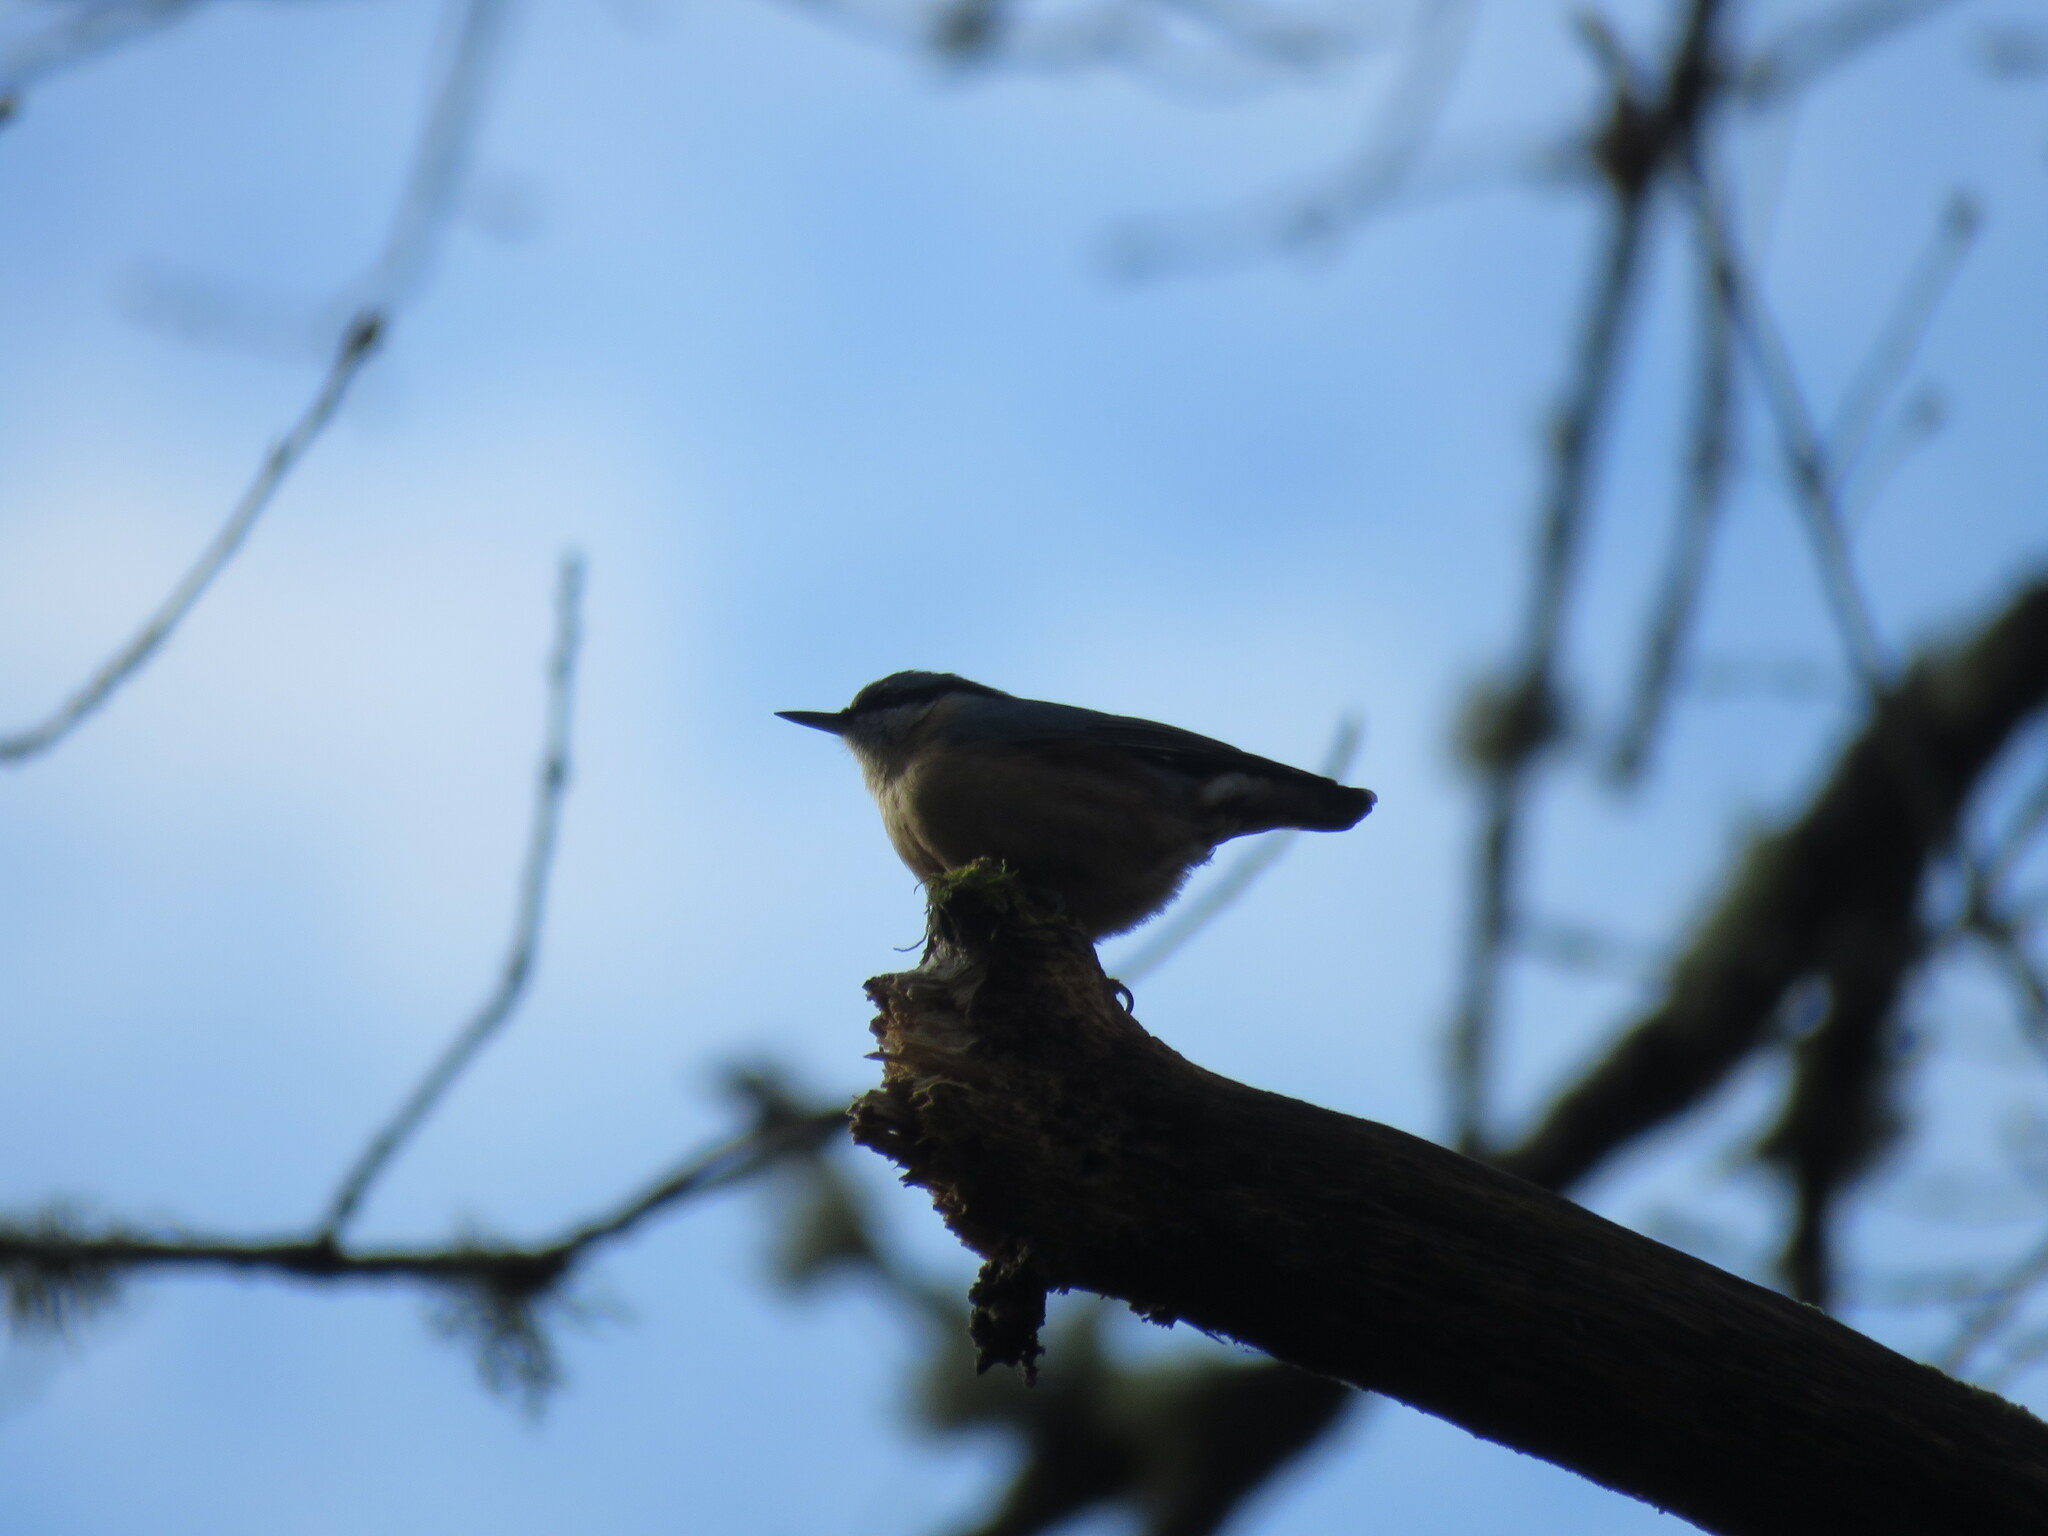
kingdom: Animalia
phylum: Chordata
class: Aves
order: Passeriformes
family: Sittidae
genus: Sitta
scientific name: Sitta europaea
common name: Eurasian nuthatch
